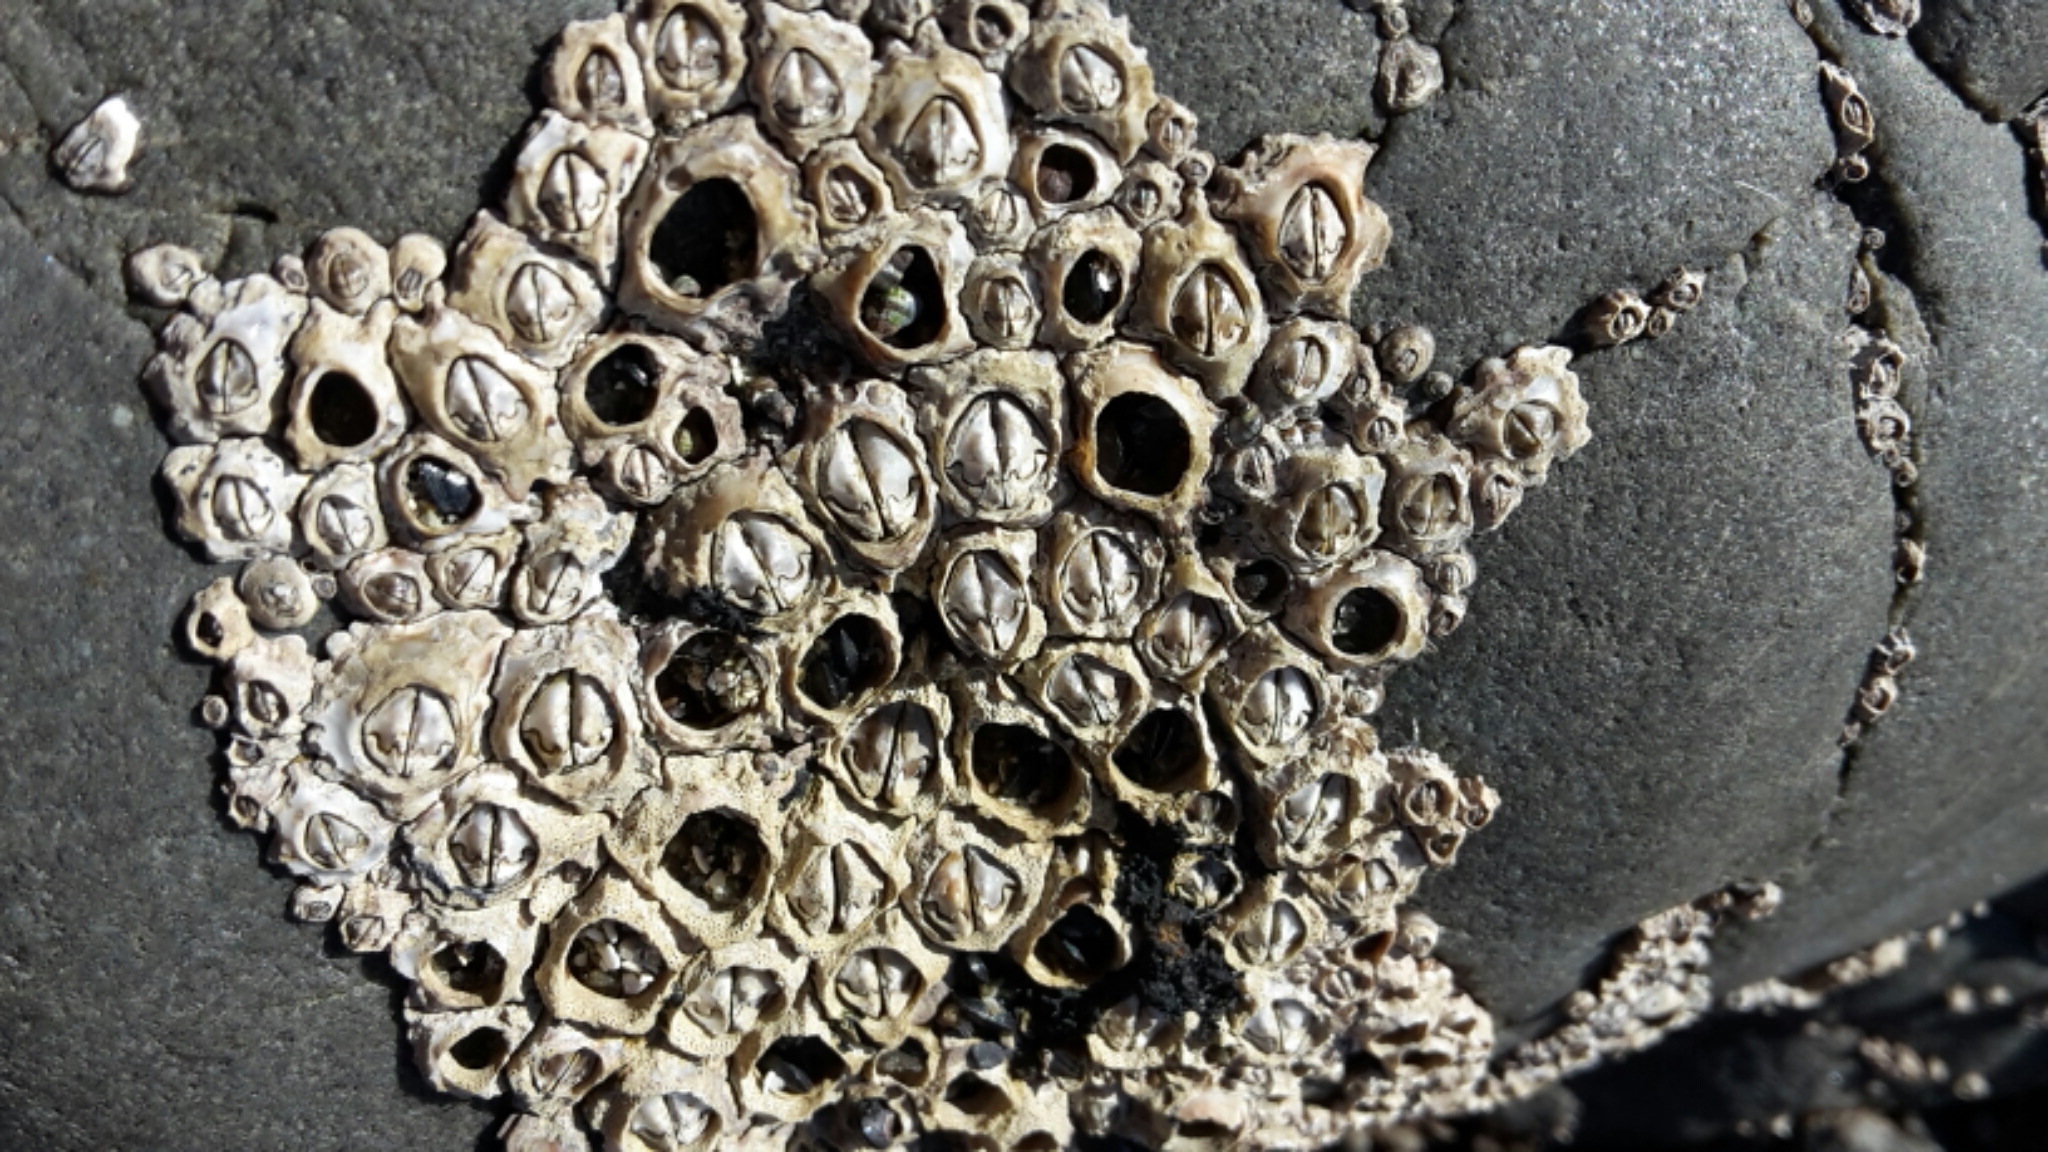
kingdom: Animalia
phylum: Arthropoda
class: Maxillopoda
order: Sessilia
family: Chthamalidae
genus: Chamaesipho
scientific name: Chamaesipho brunnea
